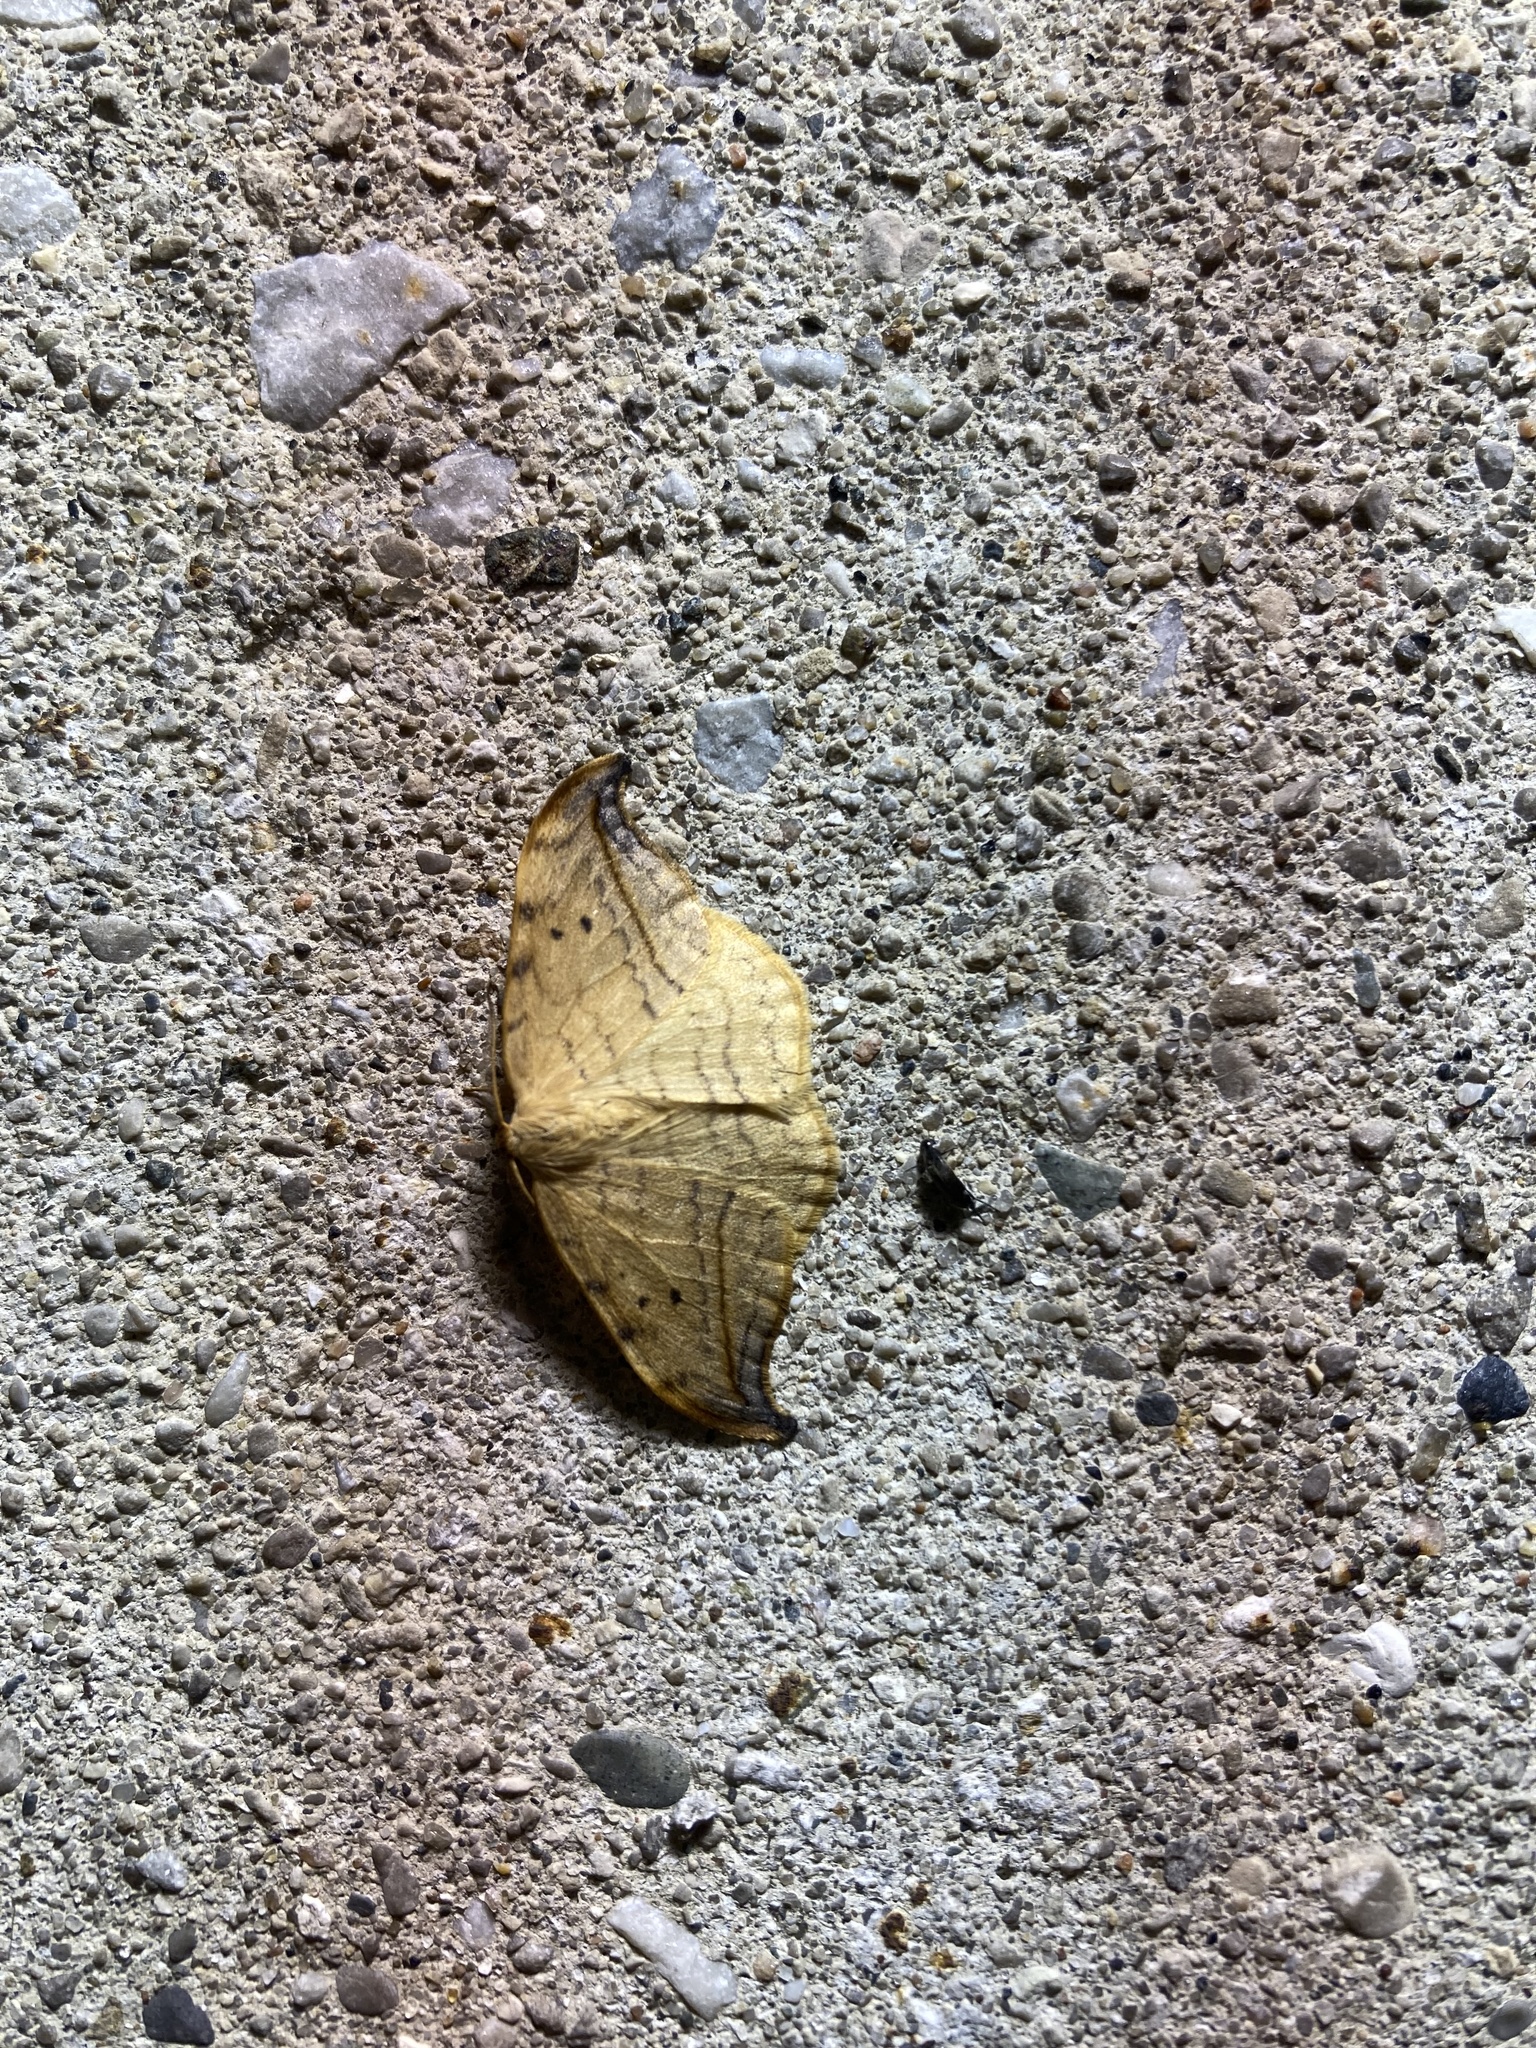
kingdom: Animalia
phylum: Arthropoda
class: Insecta
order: Lepidoptera
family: Drepanidae
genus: Drepana
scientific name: Drepana arcuata
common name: Arched hooktip moth
